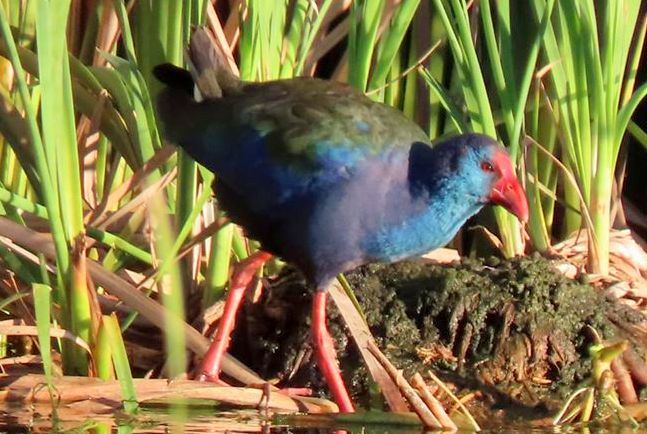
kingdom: Animalia
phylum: Chordata
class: Aves
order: Gruiformes
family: Rallidae
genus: Porphyrio
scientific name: Porphyrio porphyrio
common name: Purple swamphen
